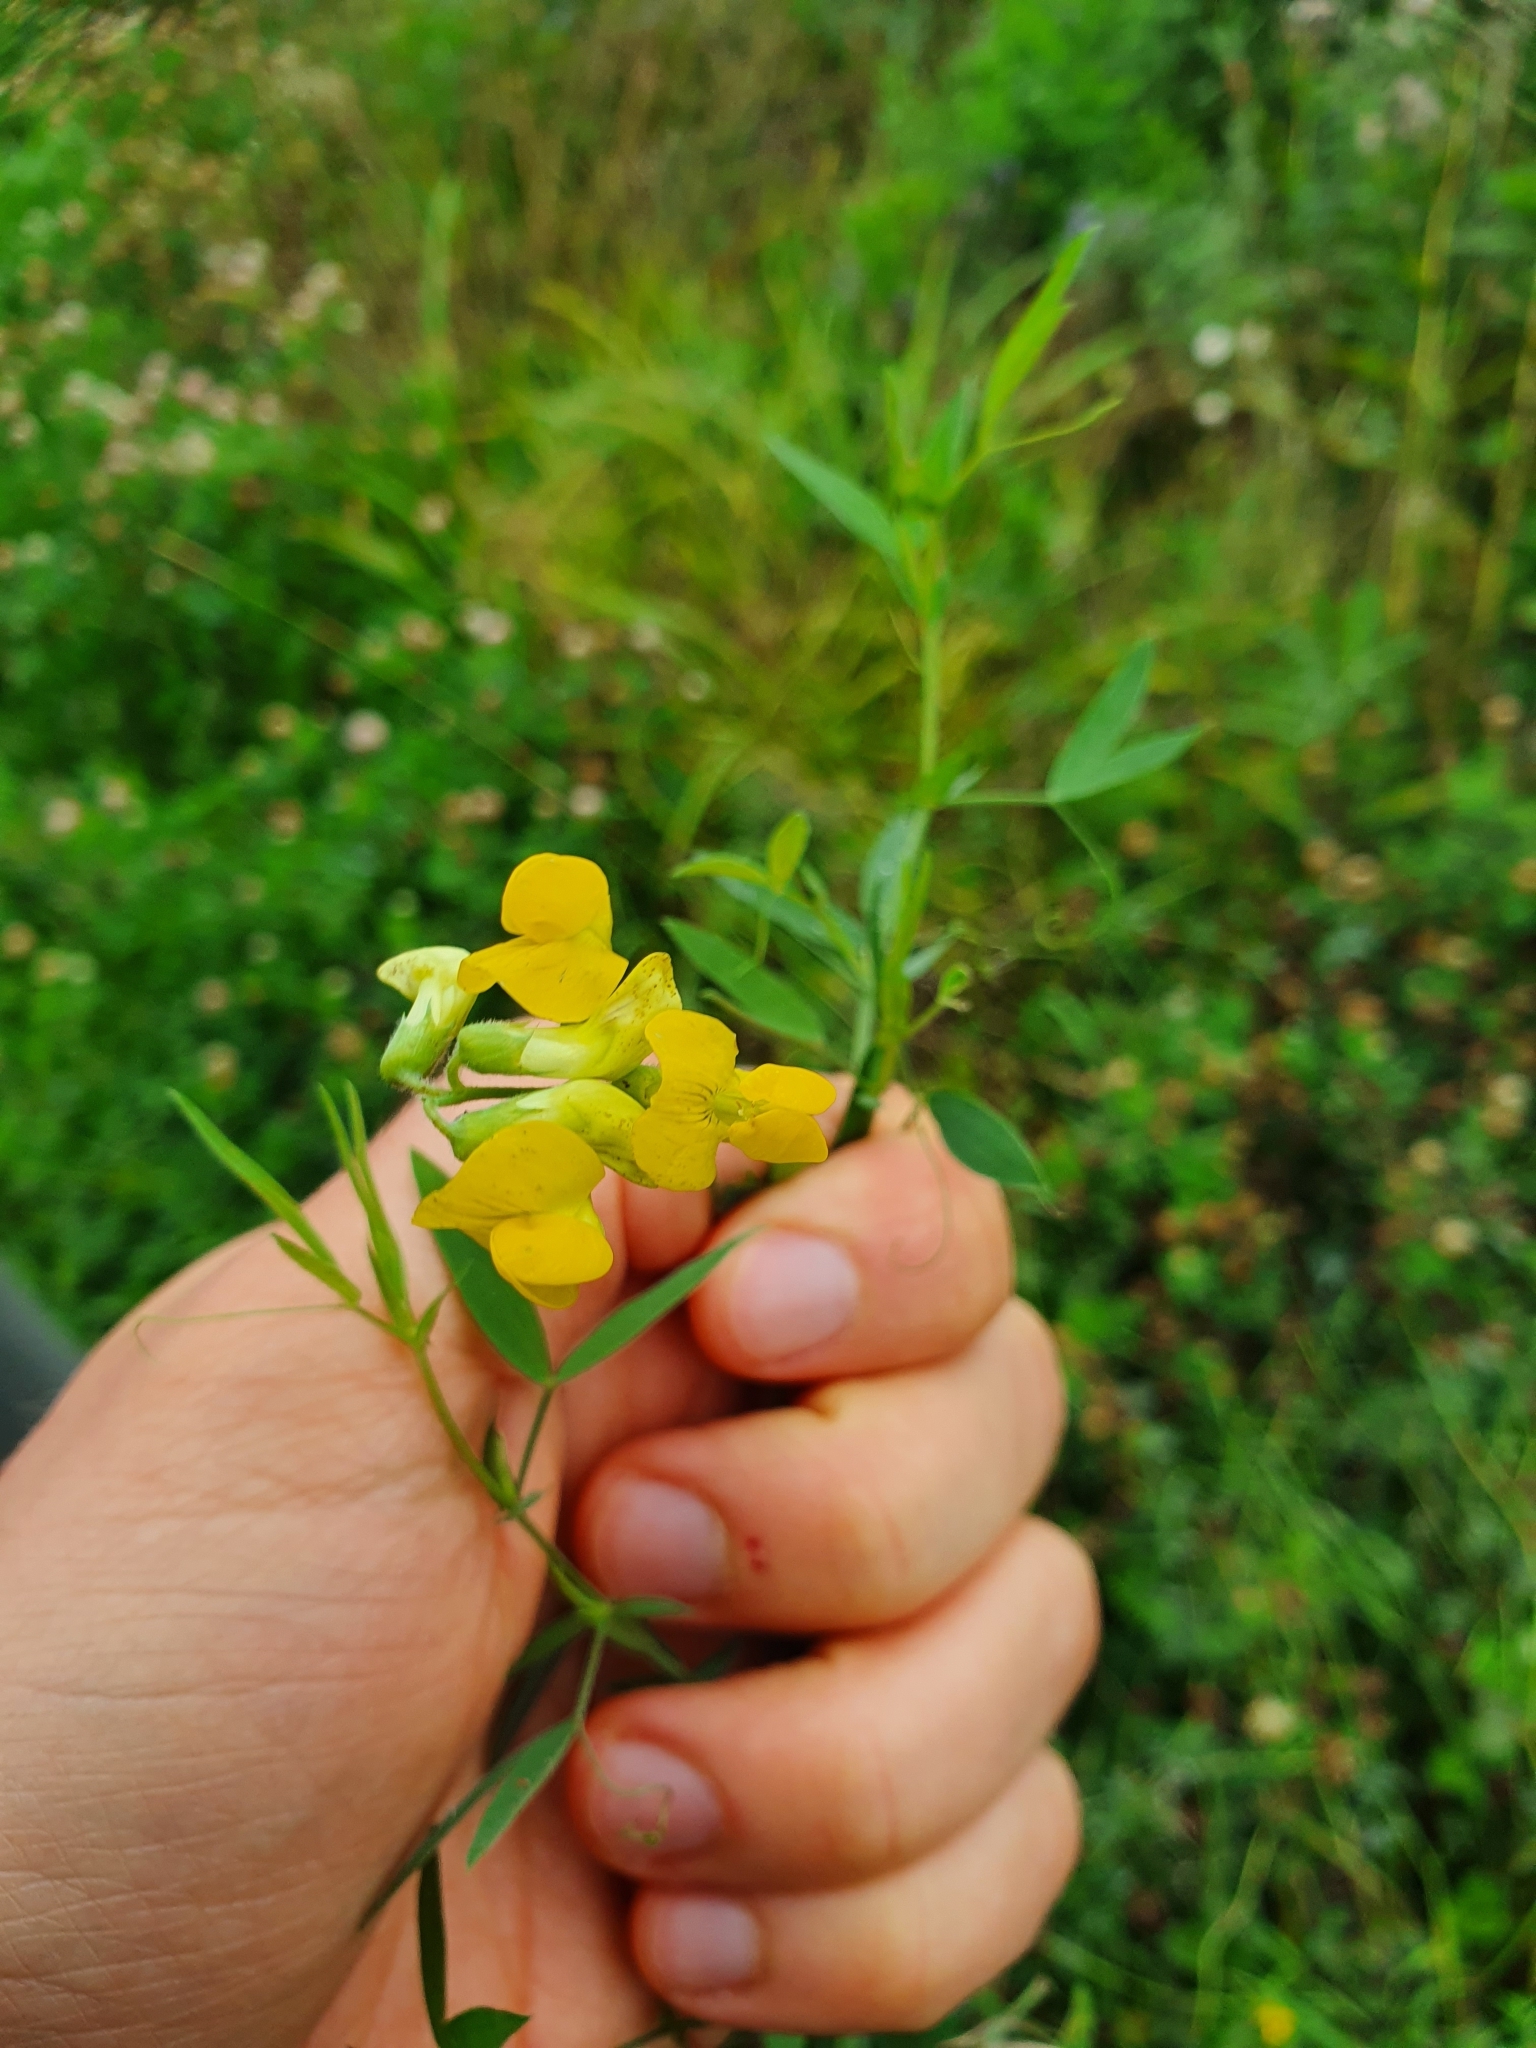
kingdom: Plantae
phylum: Tracheophyta
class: Magnoliopsida
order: Fabales
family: Fabaceae
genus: Lathyrus
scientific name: Lathyrus pratensis
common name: Meadow vetchling
